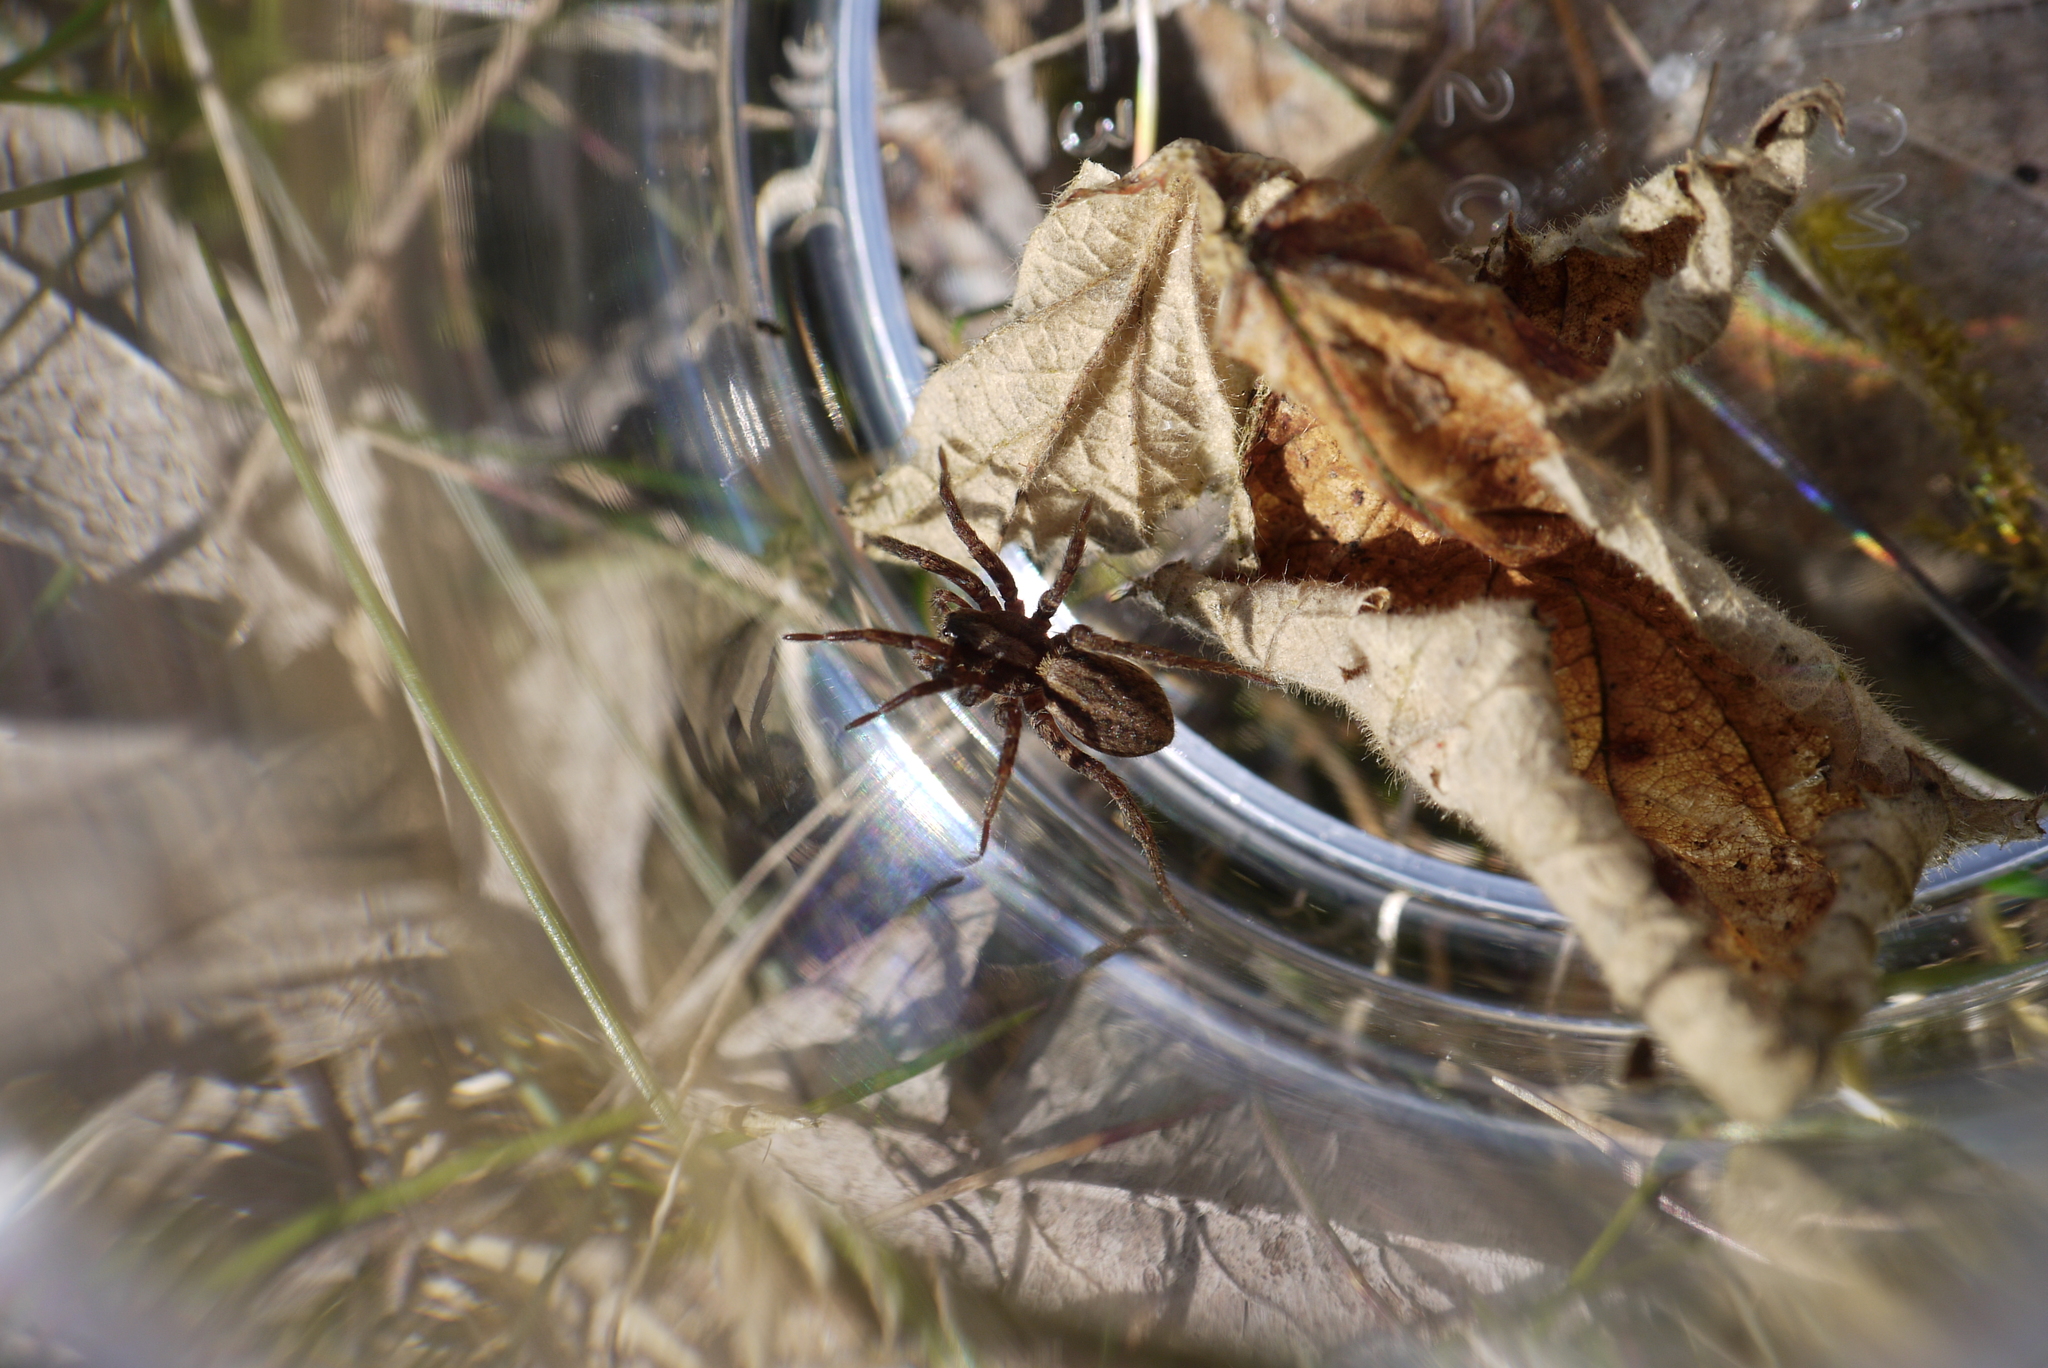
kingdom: Animalia
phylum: Arthropoda
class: Arachnida
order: Araneae
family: Lycosidae
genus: Alopecosa
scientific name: Alopecosa pulverulenta
